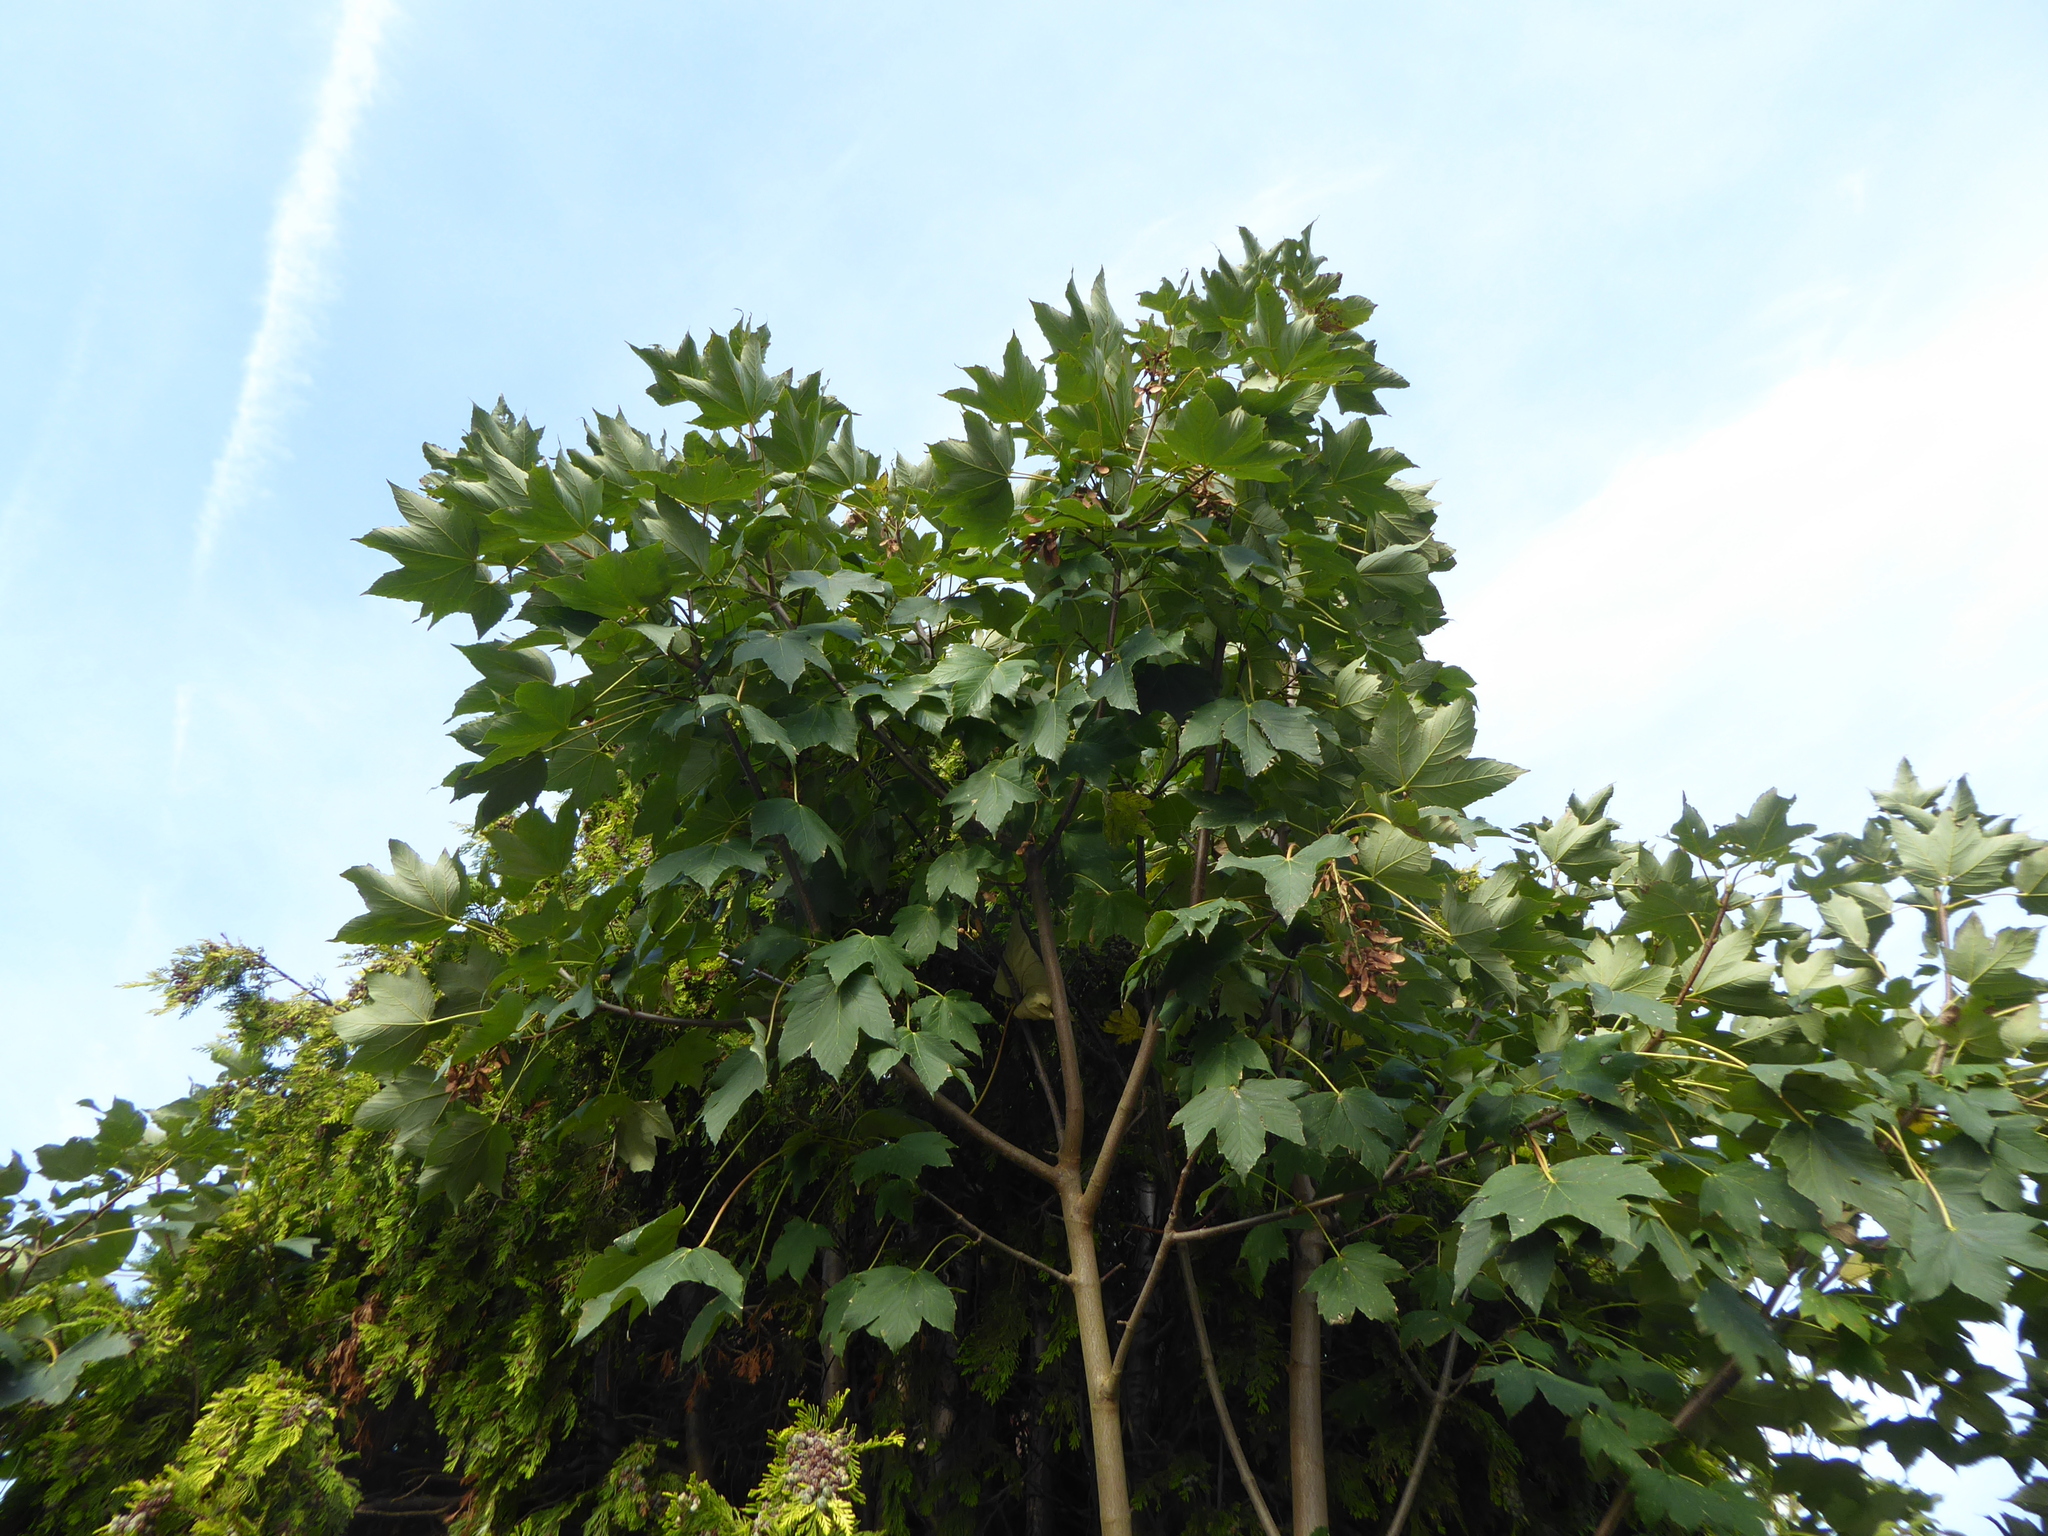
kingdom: Plantae
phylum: Tracheophyta
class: Magnoliopsida
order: Sapindales
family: Sapindaceae
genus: Acer
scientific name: Acer pseudoplatanus
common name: Sycamore
